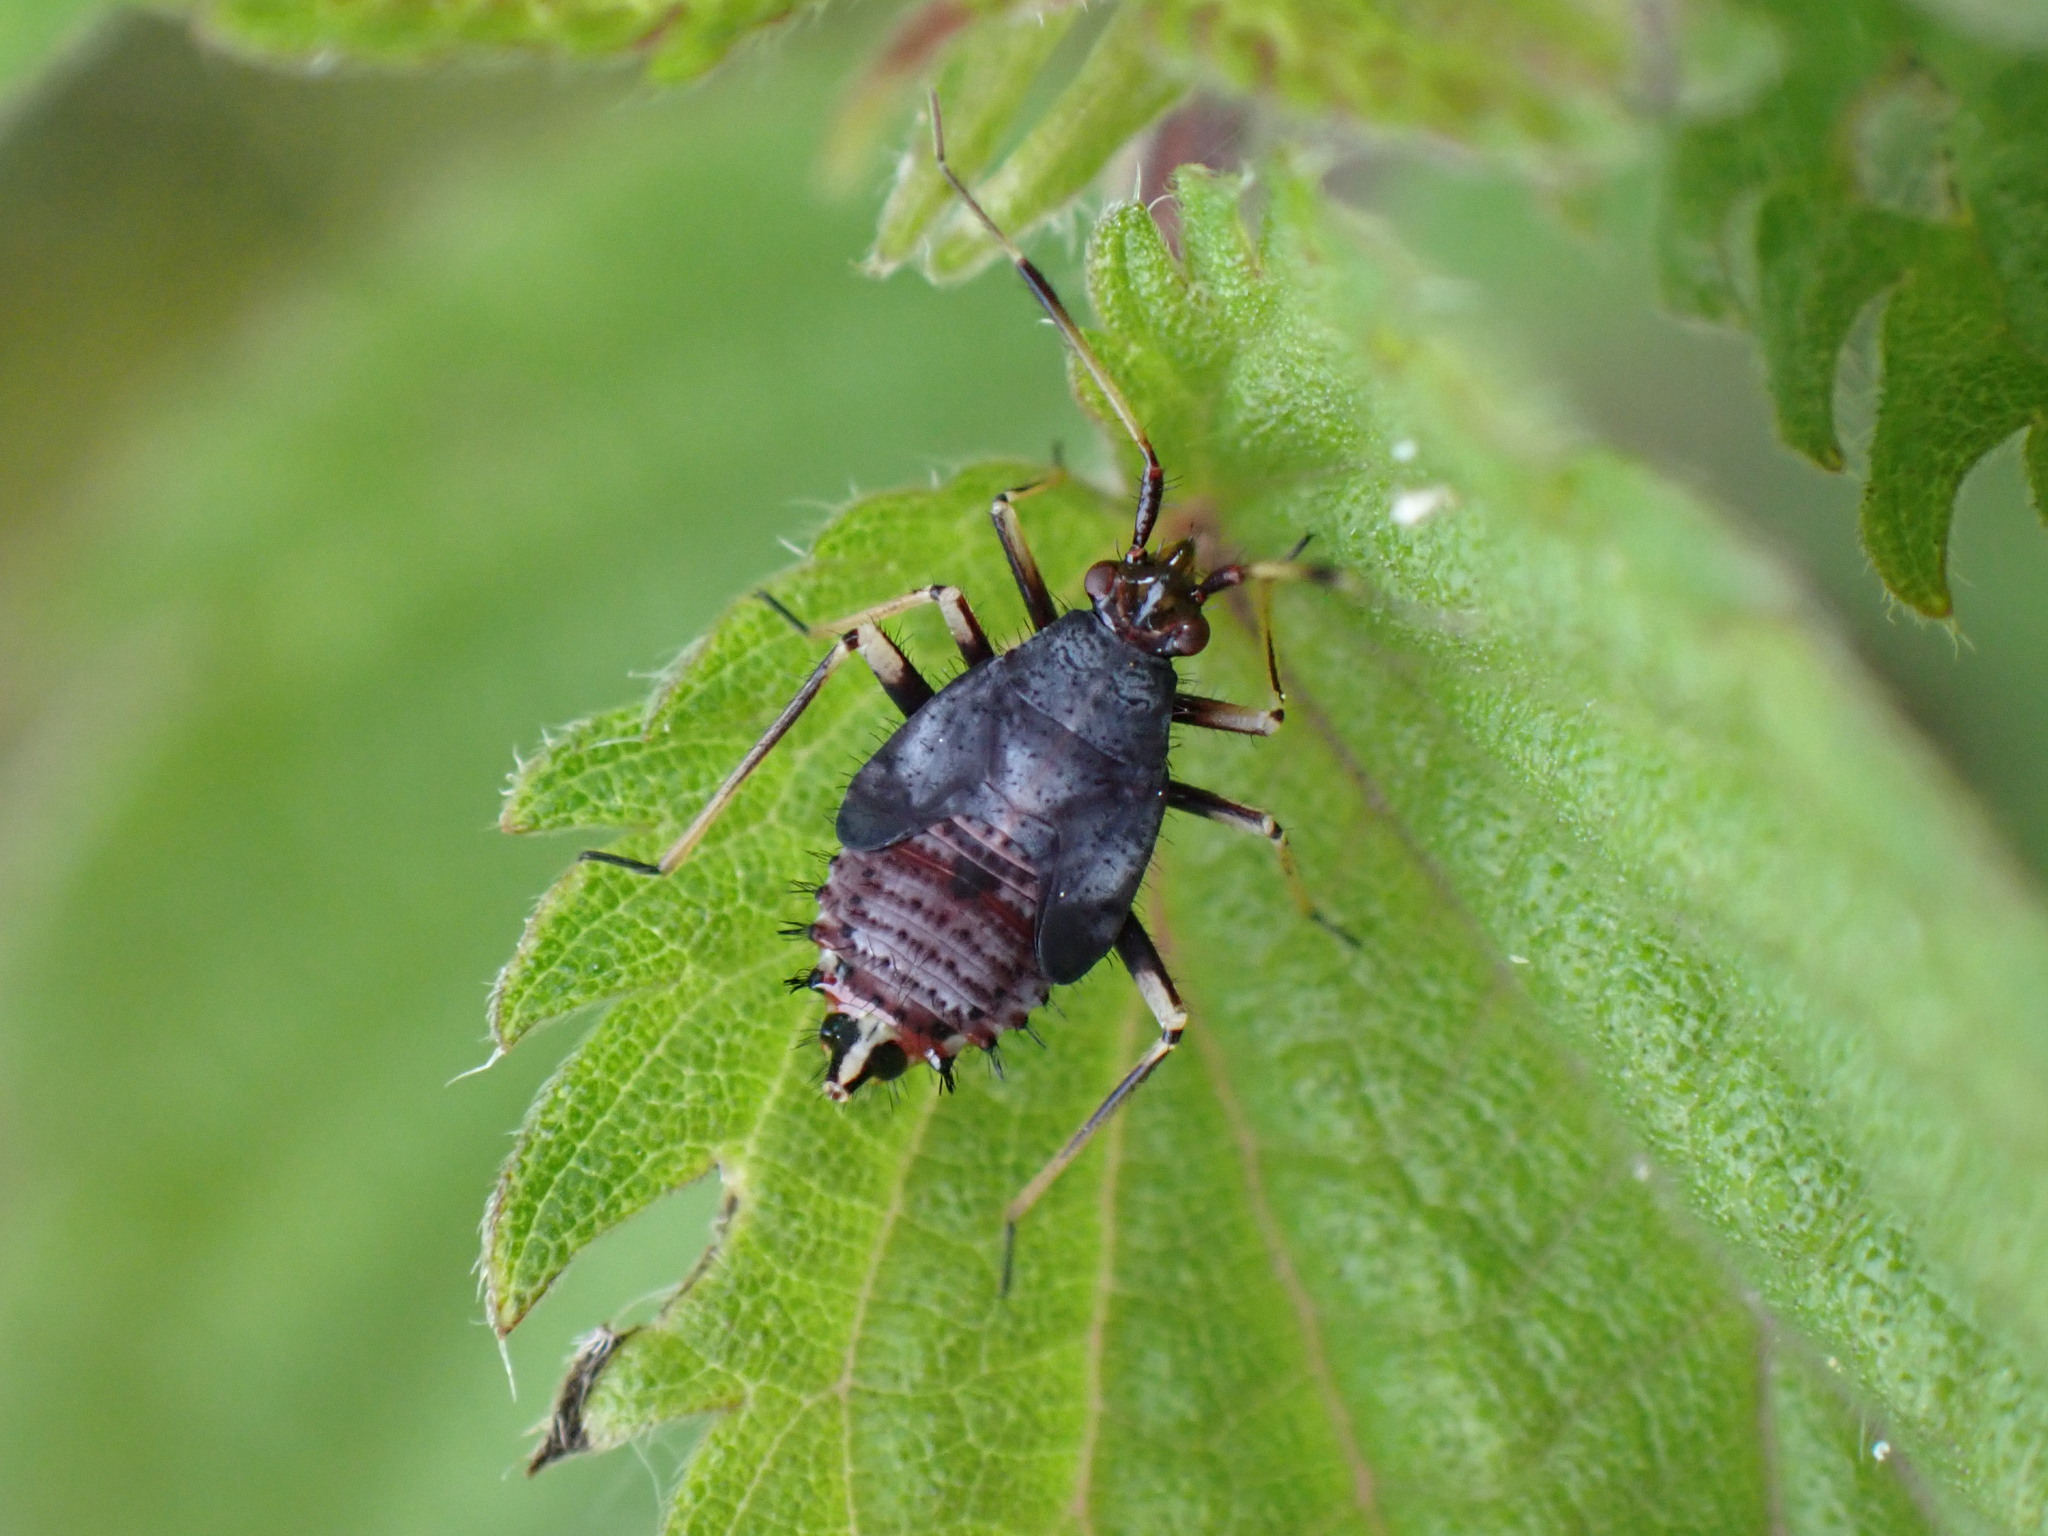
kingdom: Animalia
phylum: Arthropoda
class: Insecta
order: Hemiptera
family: Miridae
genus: Deraeocoris
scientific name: Deraeocoris ruber
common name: Plant bug
